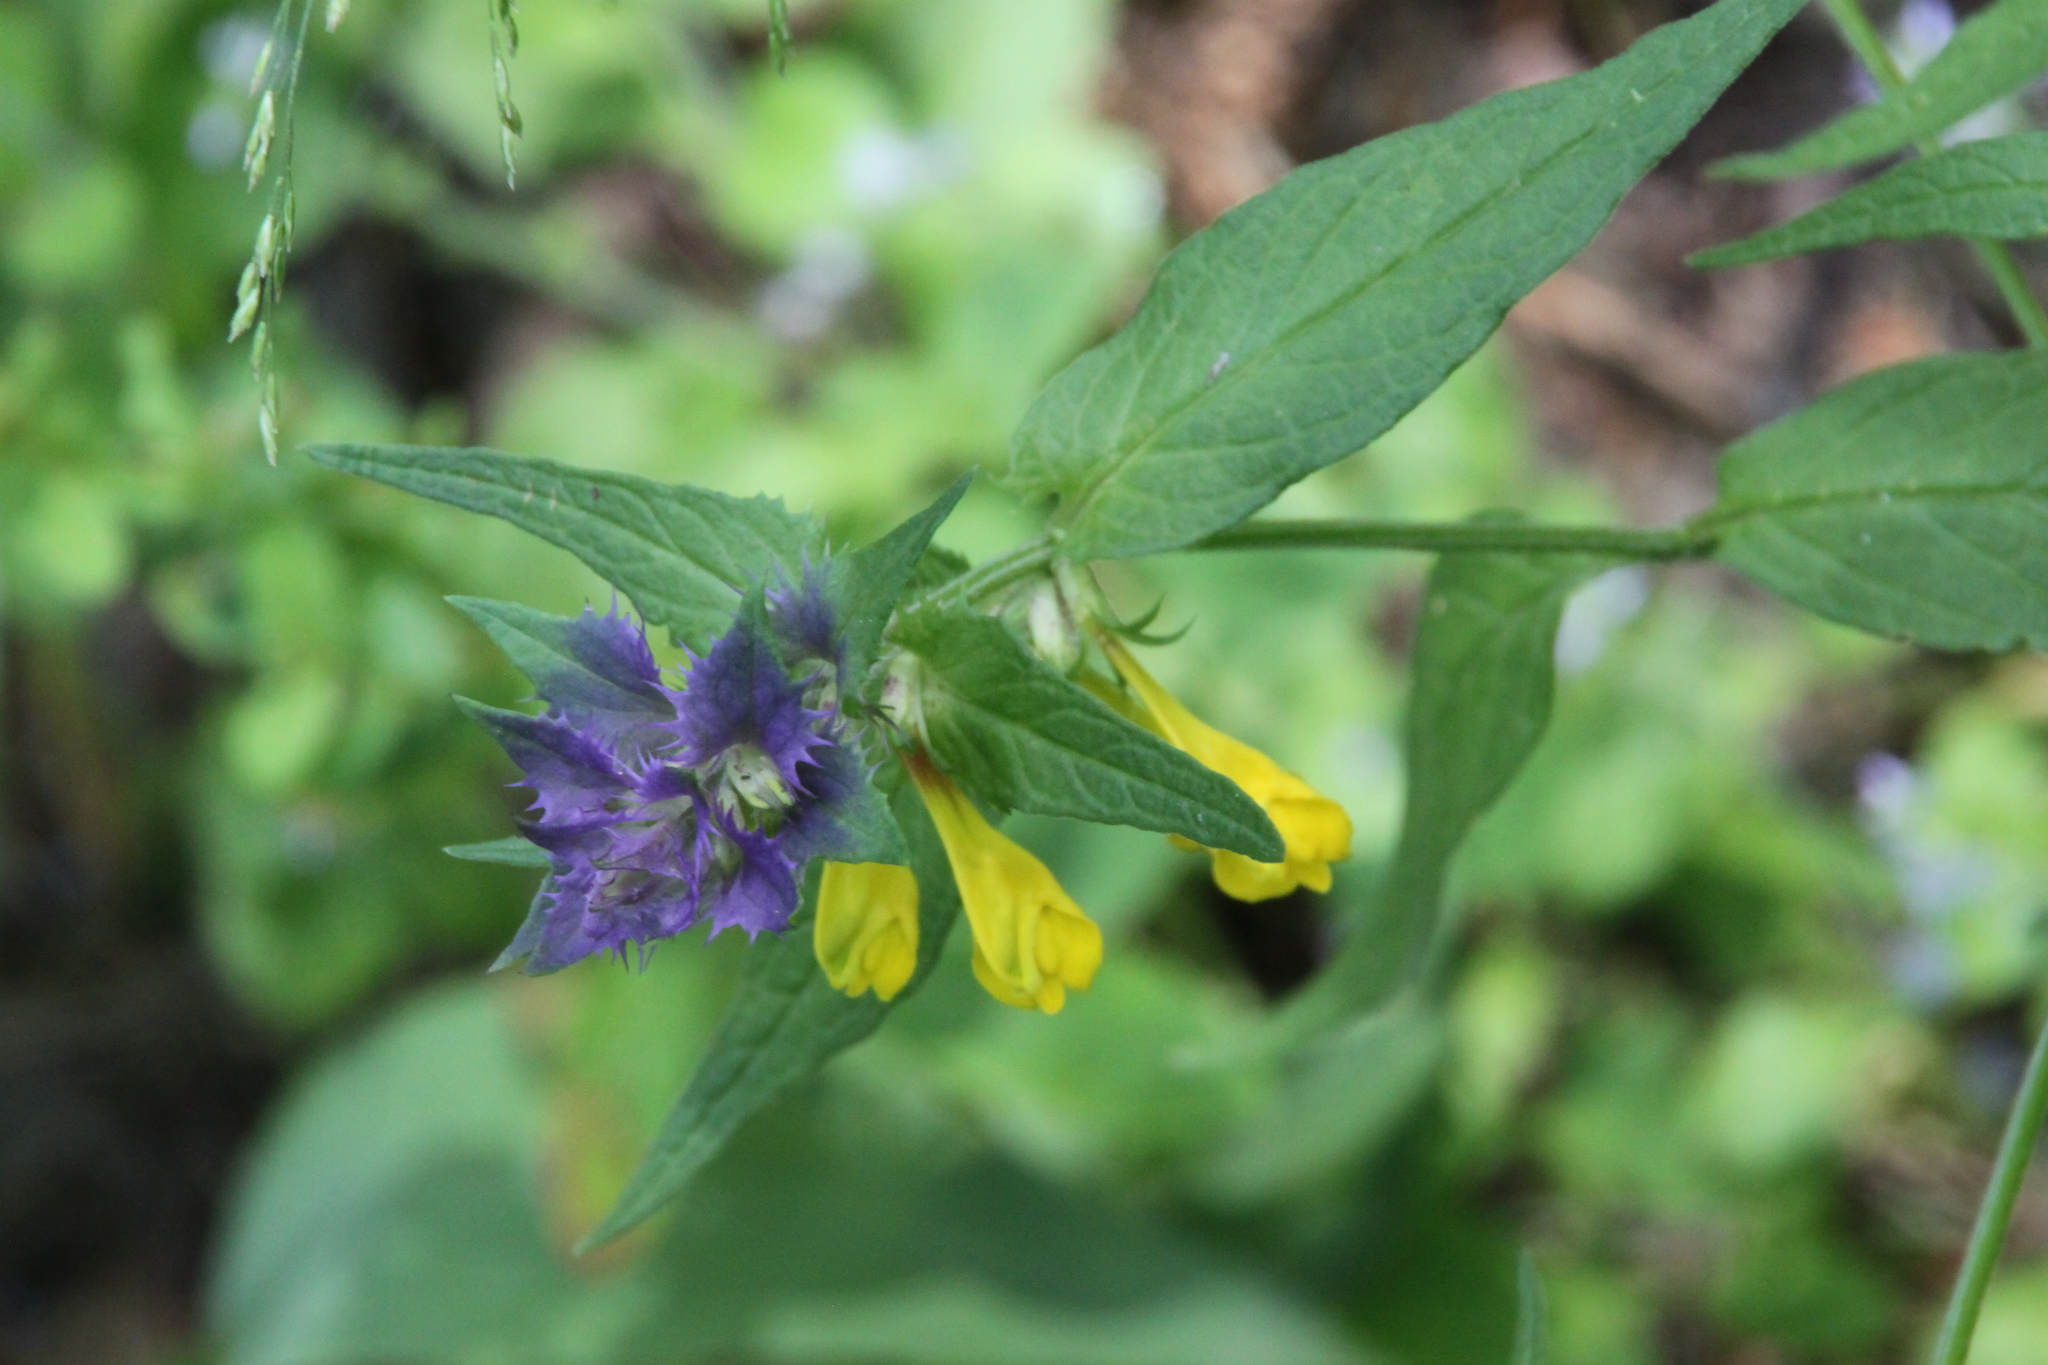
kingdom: Plantae
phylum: Tracheophyta
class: Magnoliopsida
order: Lamiales
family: Orobanchaceae
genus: Melampyrum
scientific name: Melampyrum nemorosum
